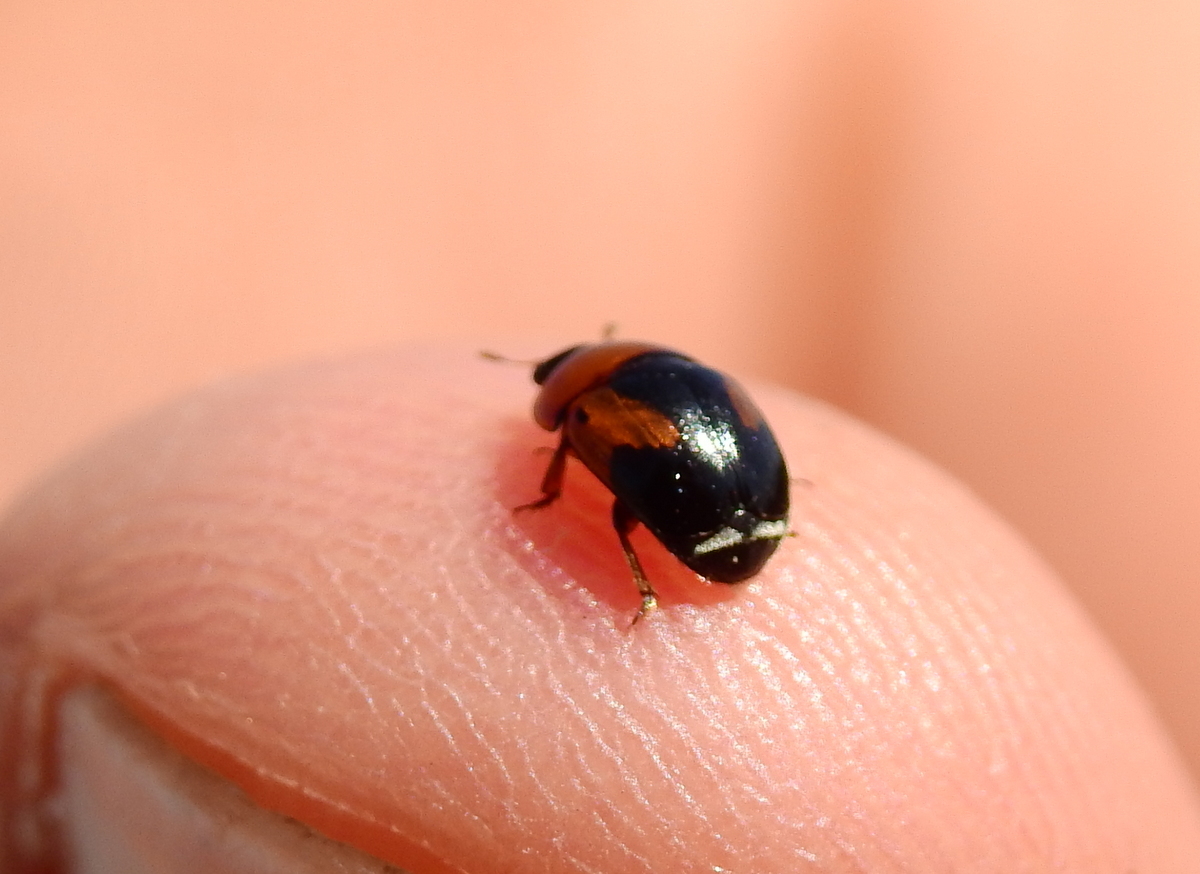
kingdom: Animalia
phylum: Arthropoda
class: Insecta
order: Coleoptera
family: Nitidulidae
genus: Camptodes
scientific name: Camptodes humeralis
